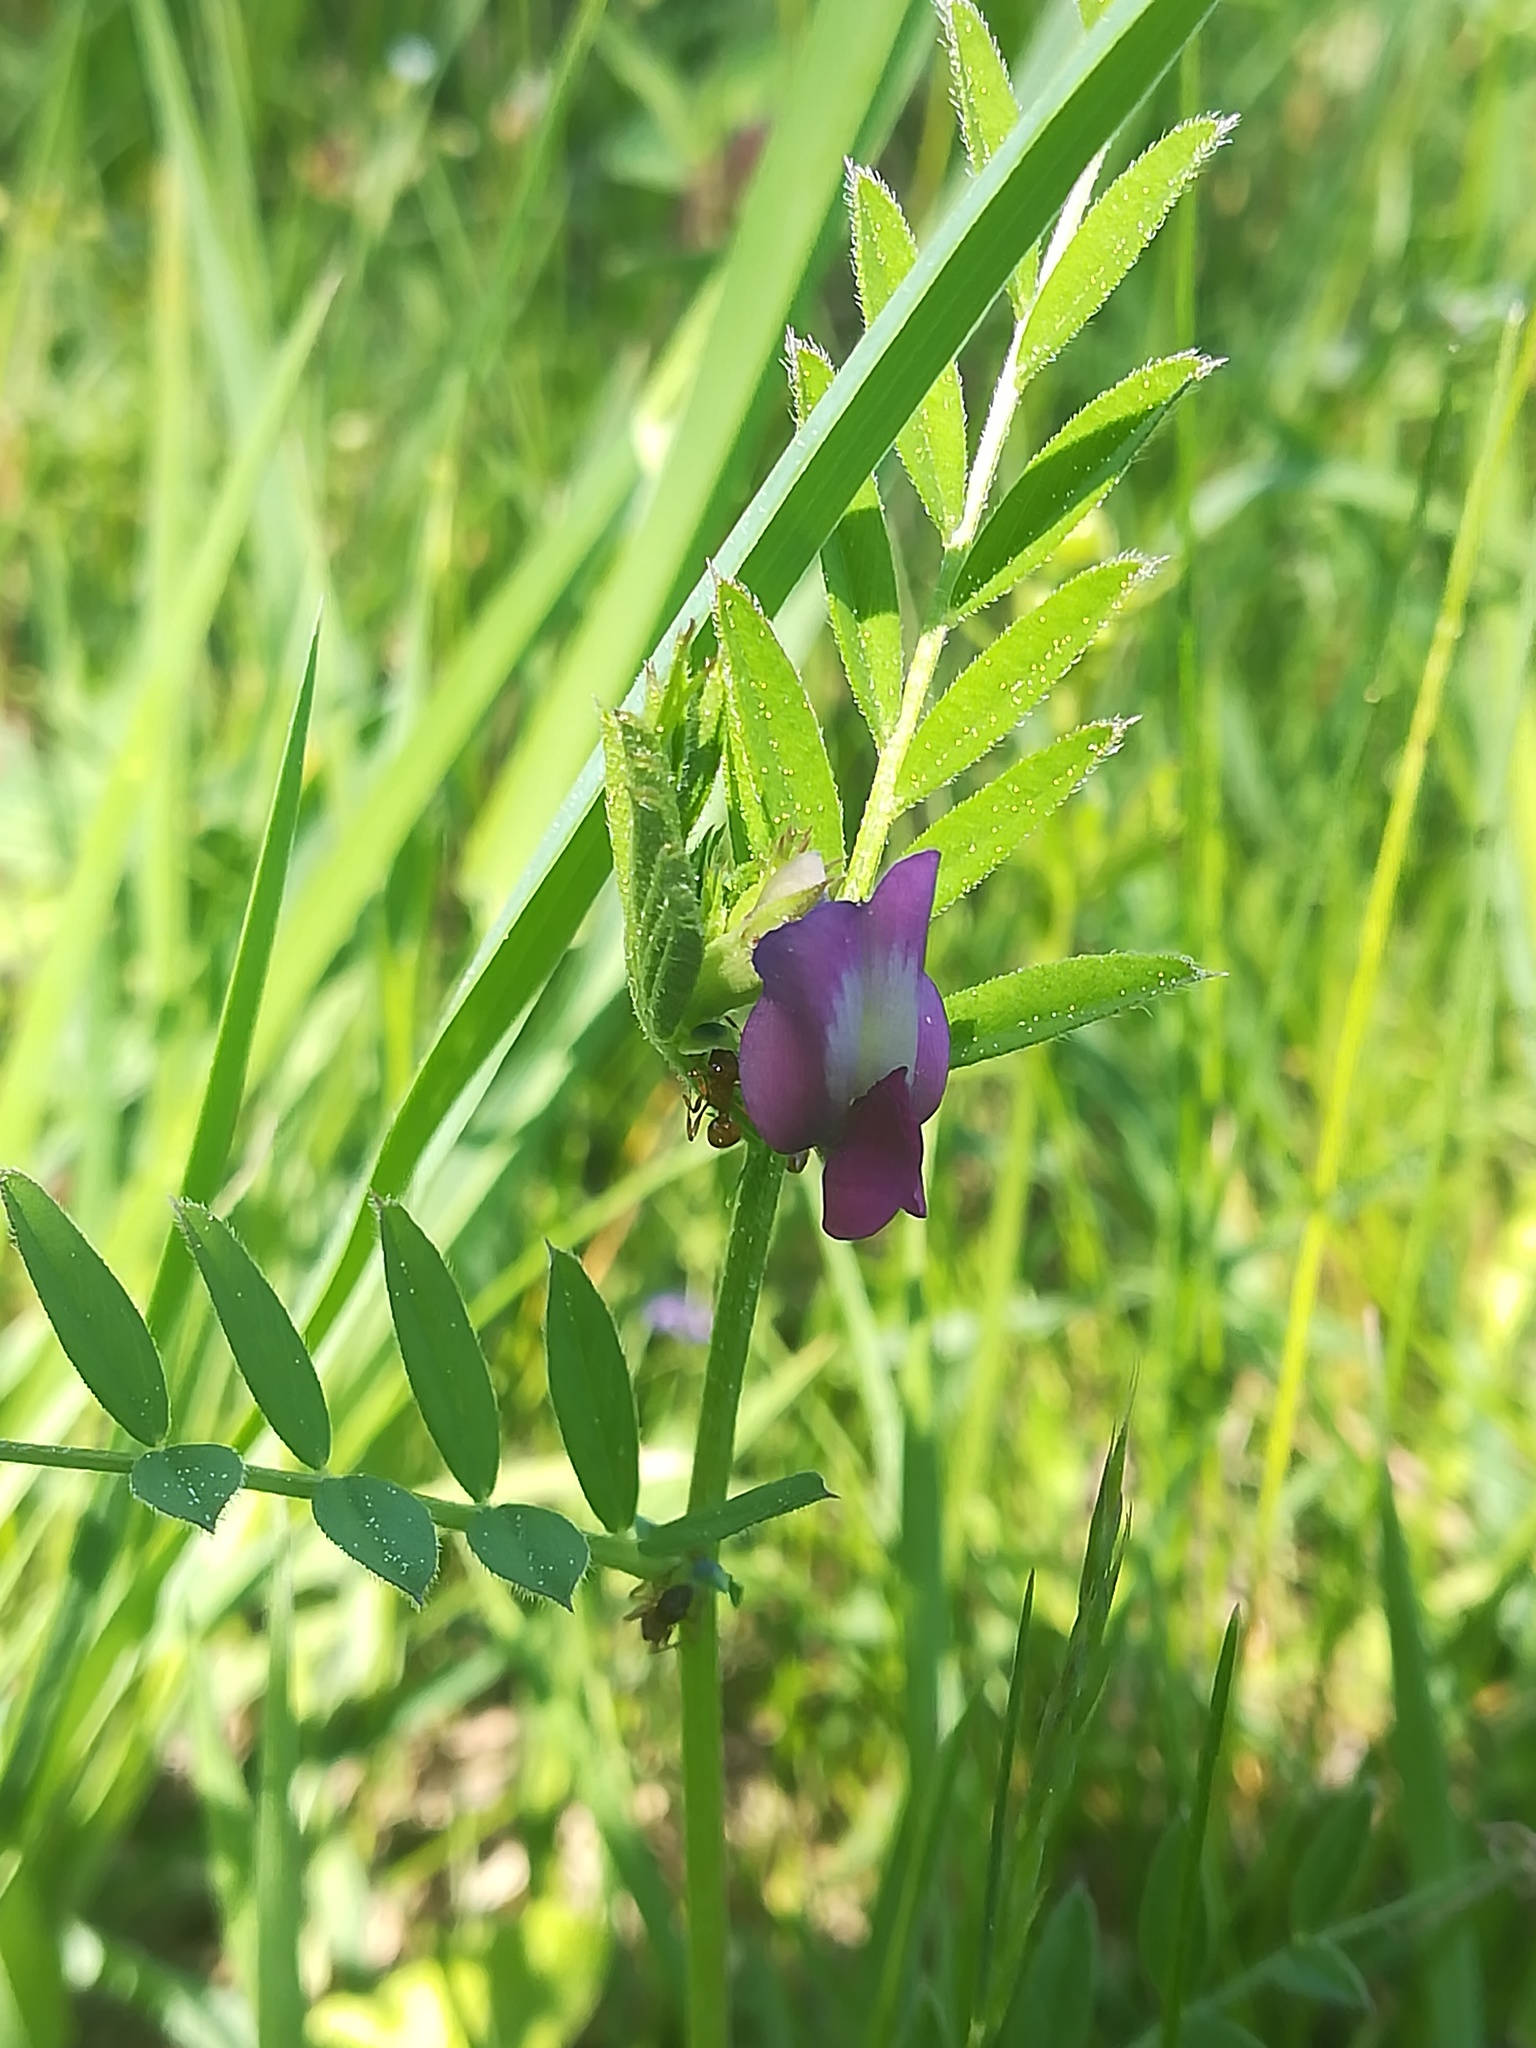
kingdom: Plantae
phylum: Tracheophyta
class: Magnoliopsida
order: Fabales
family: Fabaceae
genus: Vicia
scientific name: Vicia sativa
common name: Garden vetch
